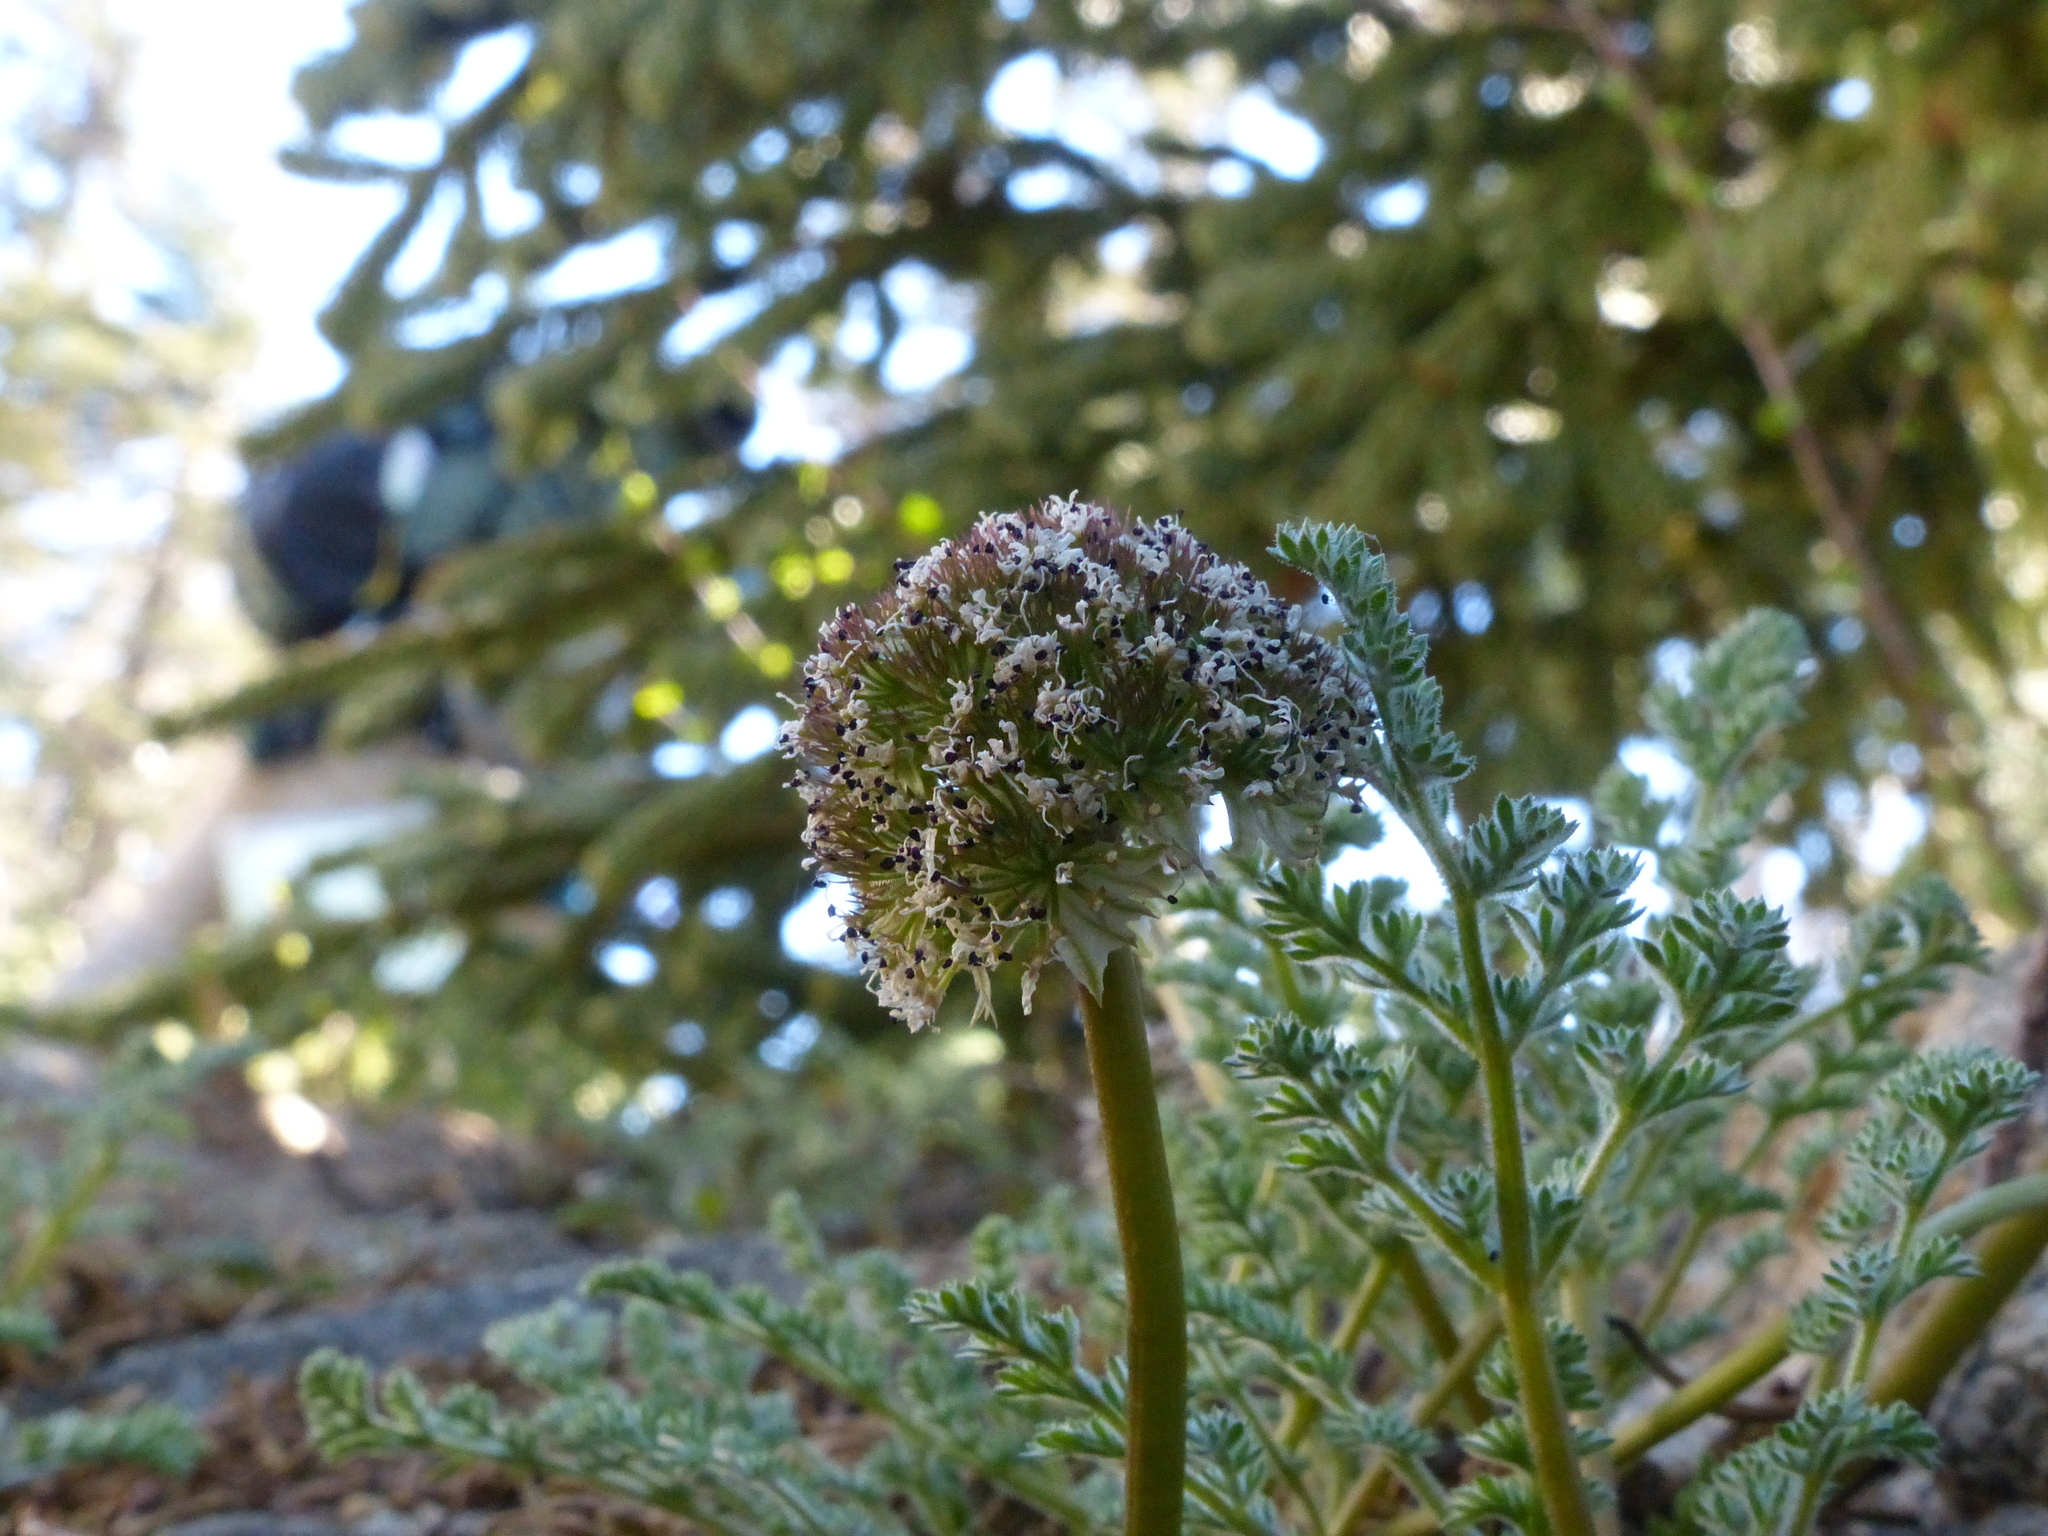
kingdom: Plantae
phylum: Tracheophyta
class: Magnoliopsida
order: Apiales
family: Apiaceae
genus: Oreonana
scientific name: Oreonana purpurascens
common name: Purple mountain-parsley
